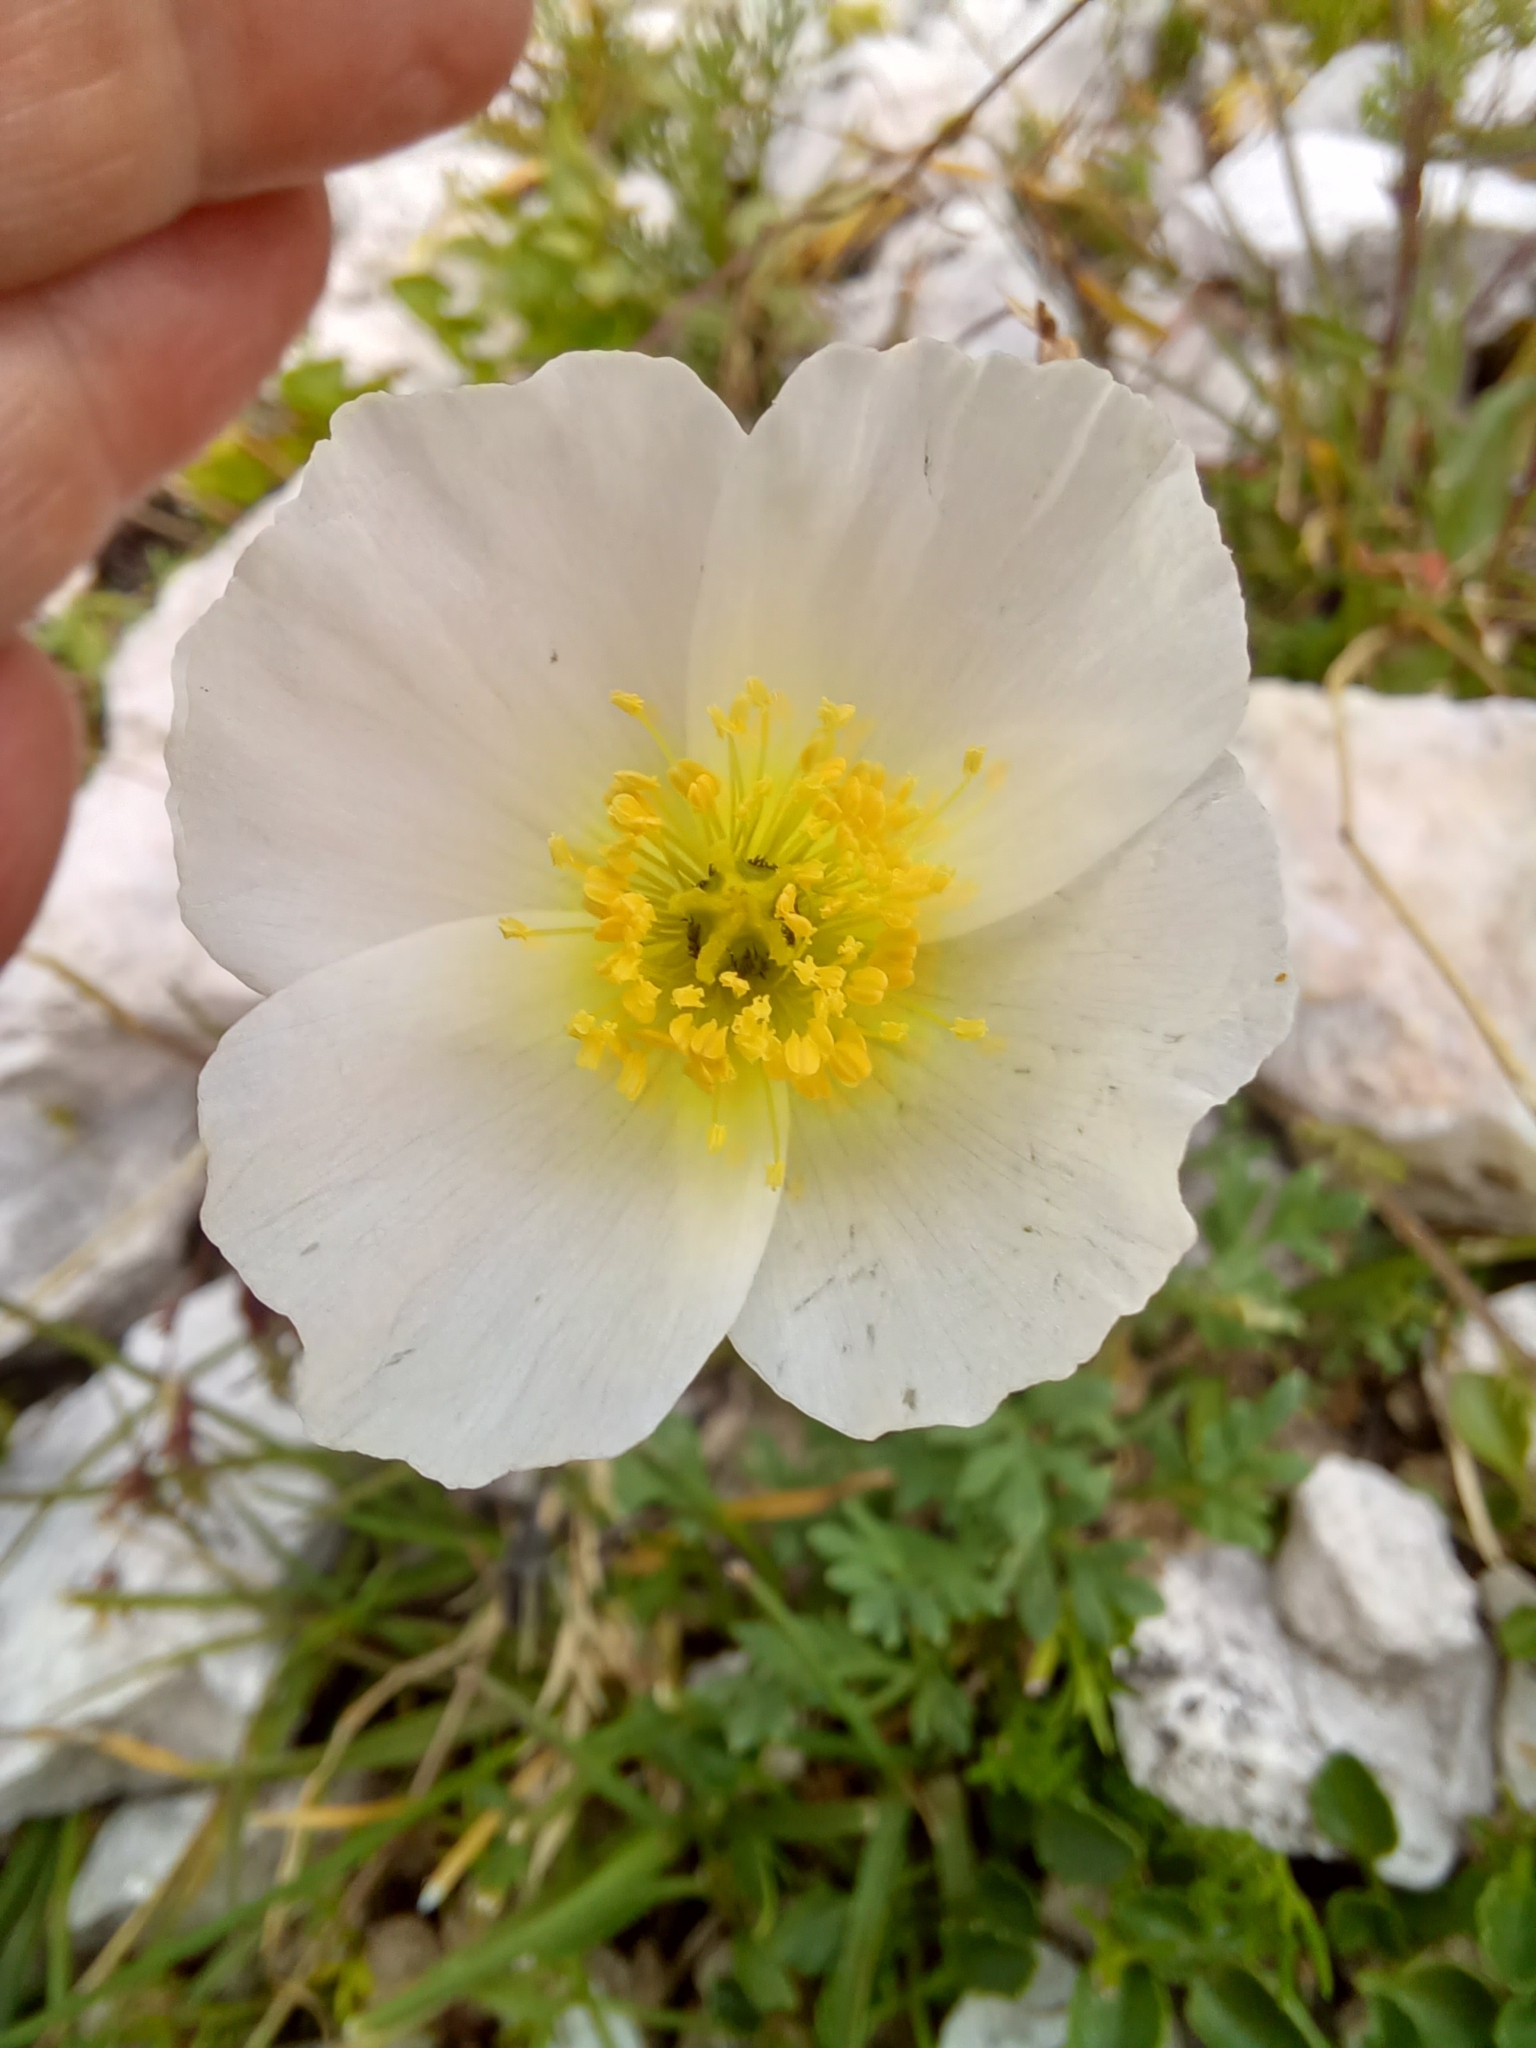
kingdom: Plantae
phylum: Tracheophyta
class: Magnoliopsida
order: Ranunculales
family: Papaveraceae
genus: Papaver
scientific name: Papaver alpinum
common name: Austrian poppy
